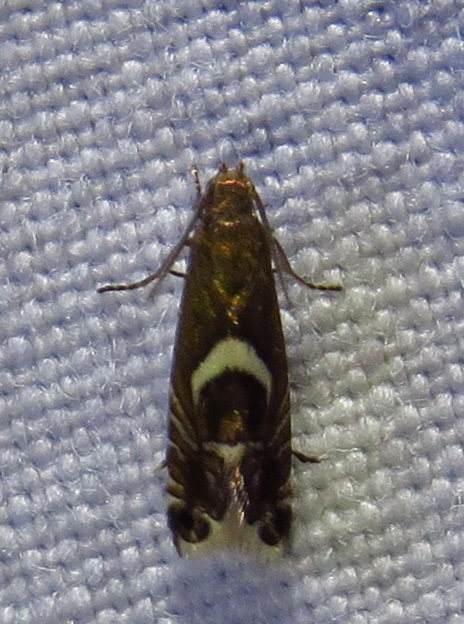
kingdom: Animalia
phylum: Arthropoda
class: Insecta
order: Lepidoptera
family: Glyphipterigidae
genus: Glyphipterix
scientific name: Glyphipterix Diploschizia impigritella
